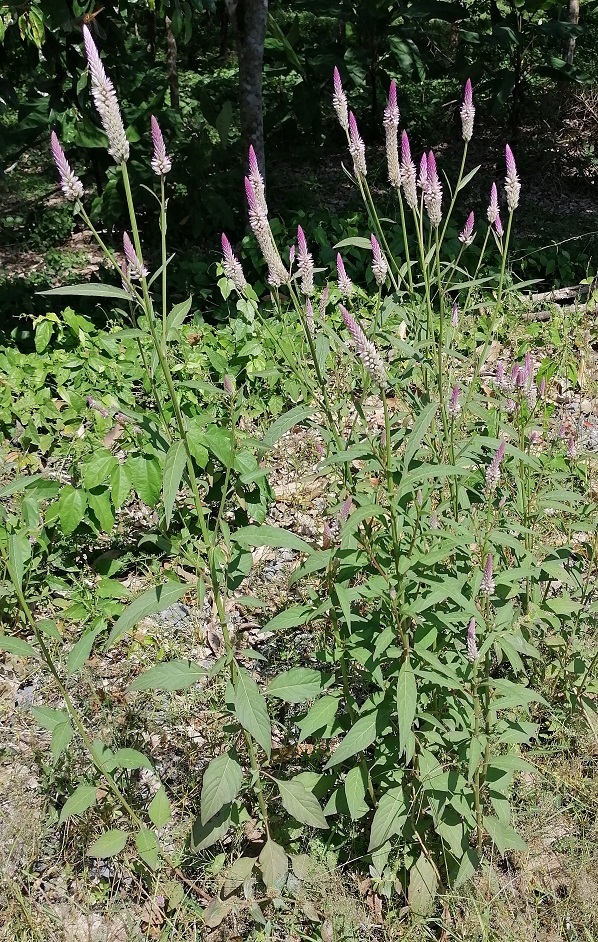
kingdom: Plantae
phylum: Tracheophyta
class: Magnoliopsida
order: Caryophyllales
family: Amaranthaceae
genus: Celosia
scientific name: Celosia argentea
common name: Feather cockscomb
